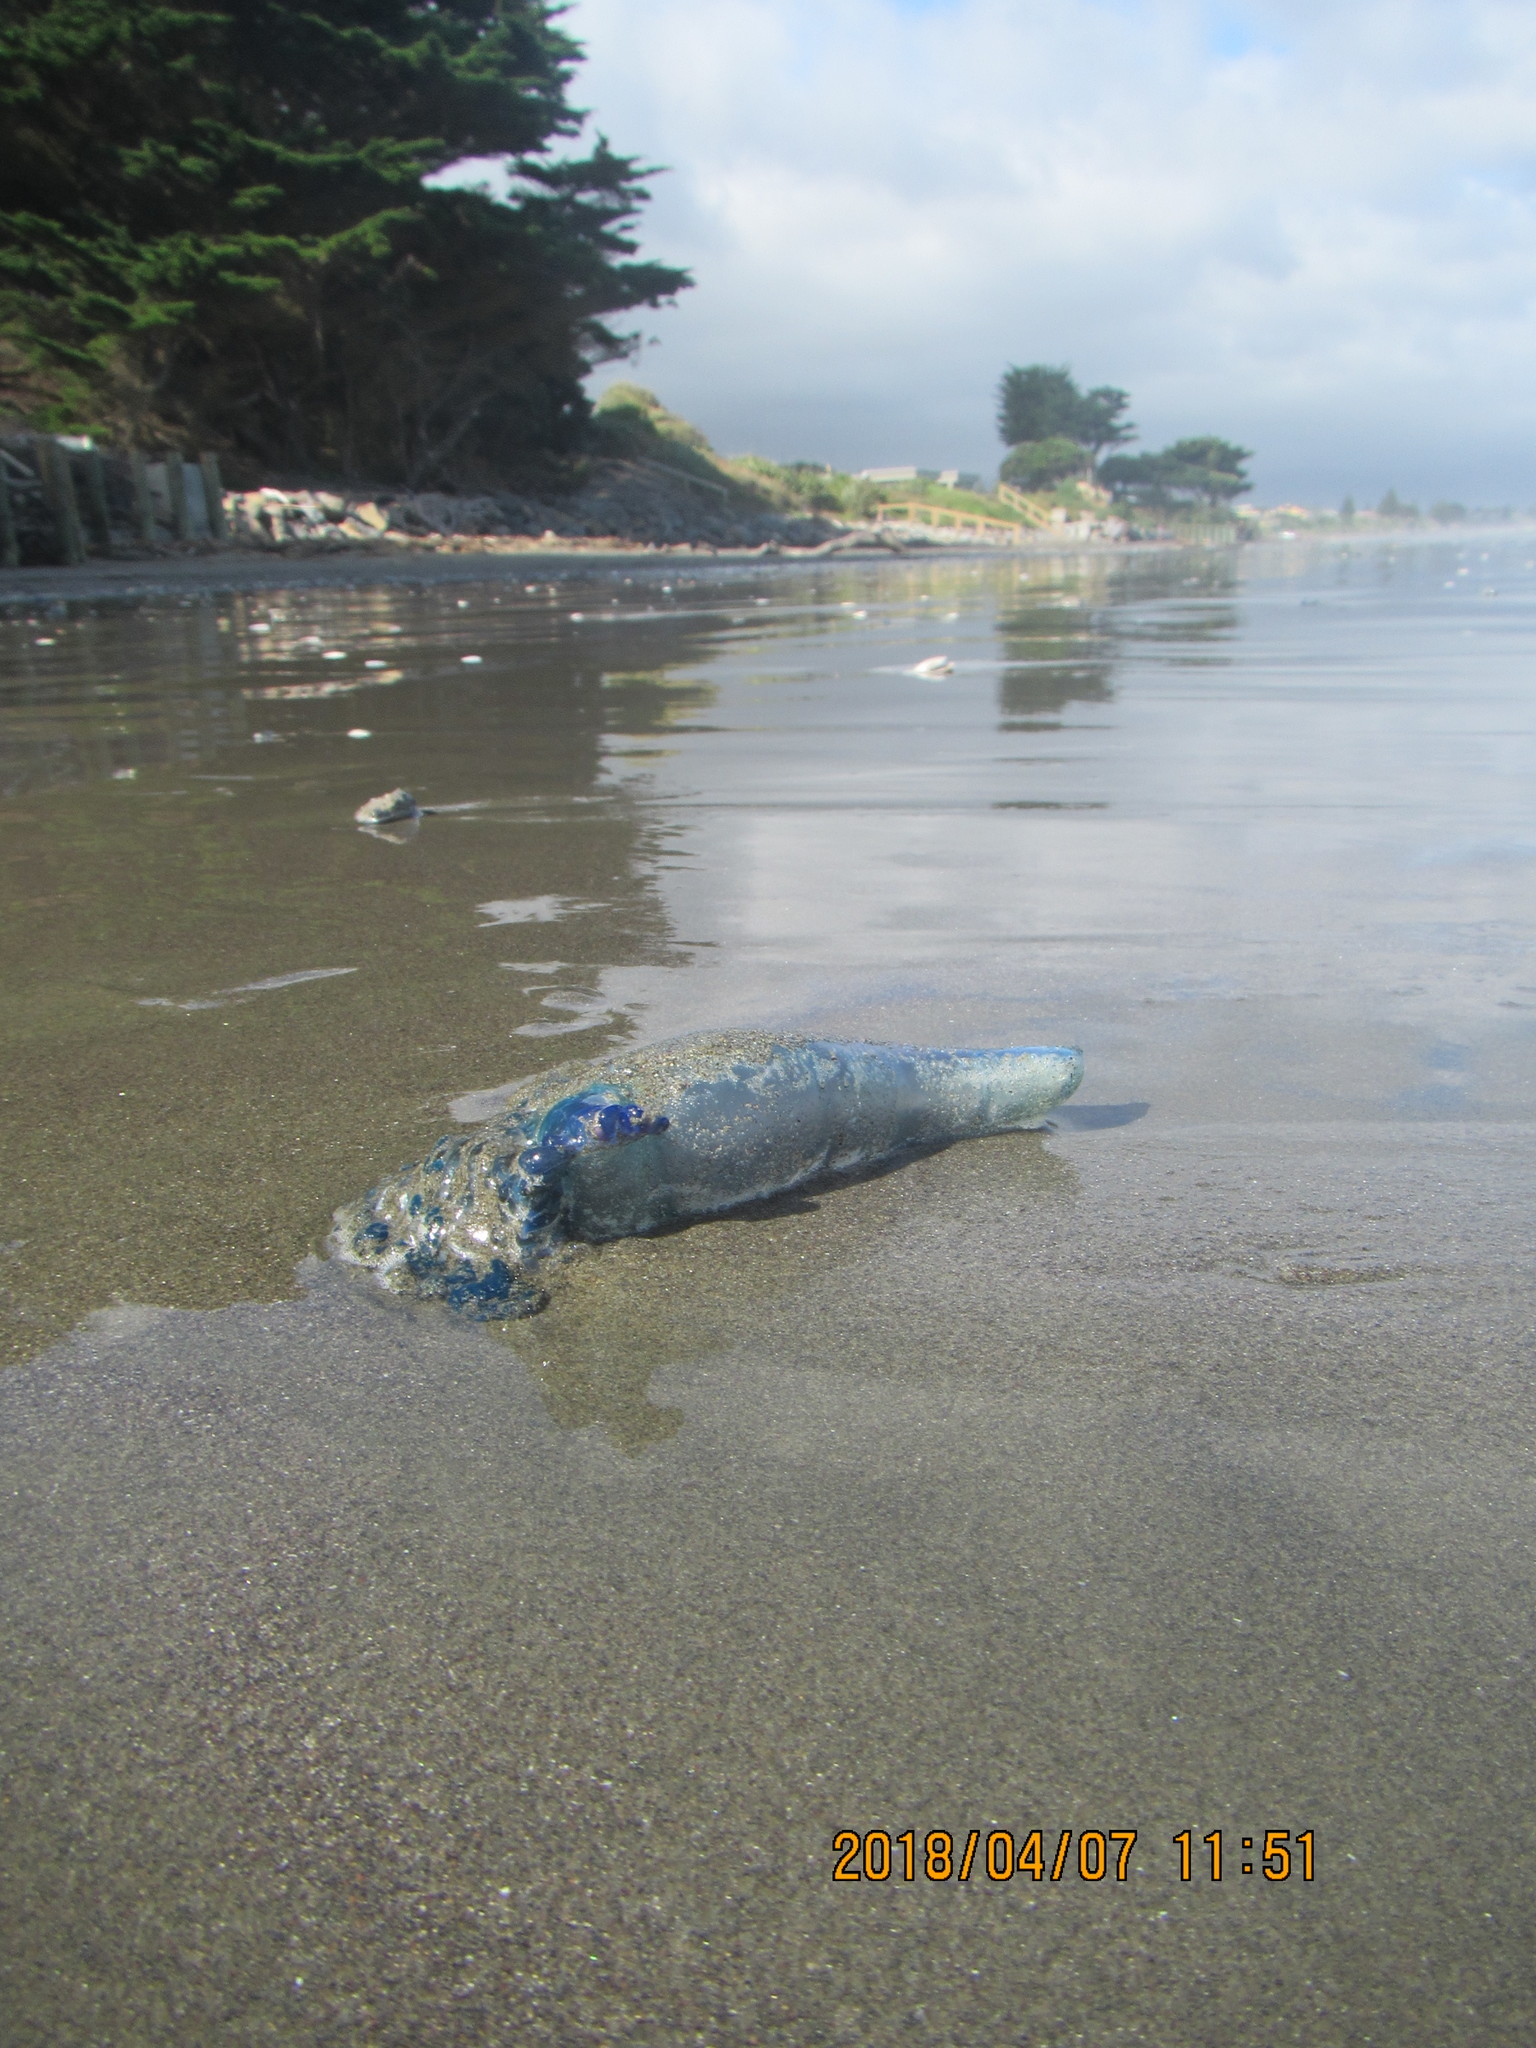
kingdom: Animalia
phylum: Cnidaria
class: Hydrozoa
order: Siphonophorae
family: Physaliidae
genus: Physalia
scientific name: Physalia physalis
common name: Portuguese man-of-war
